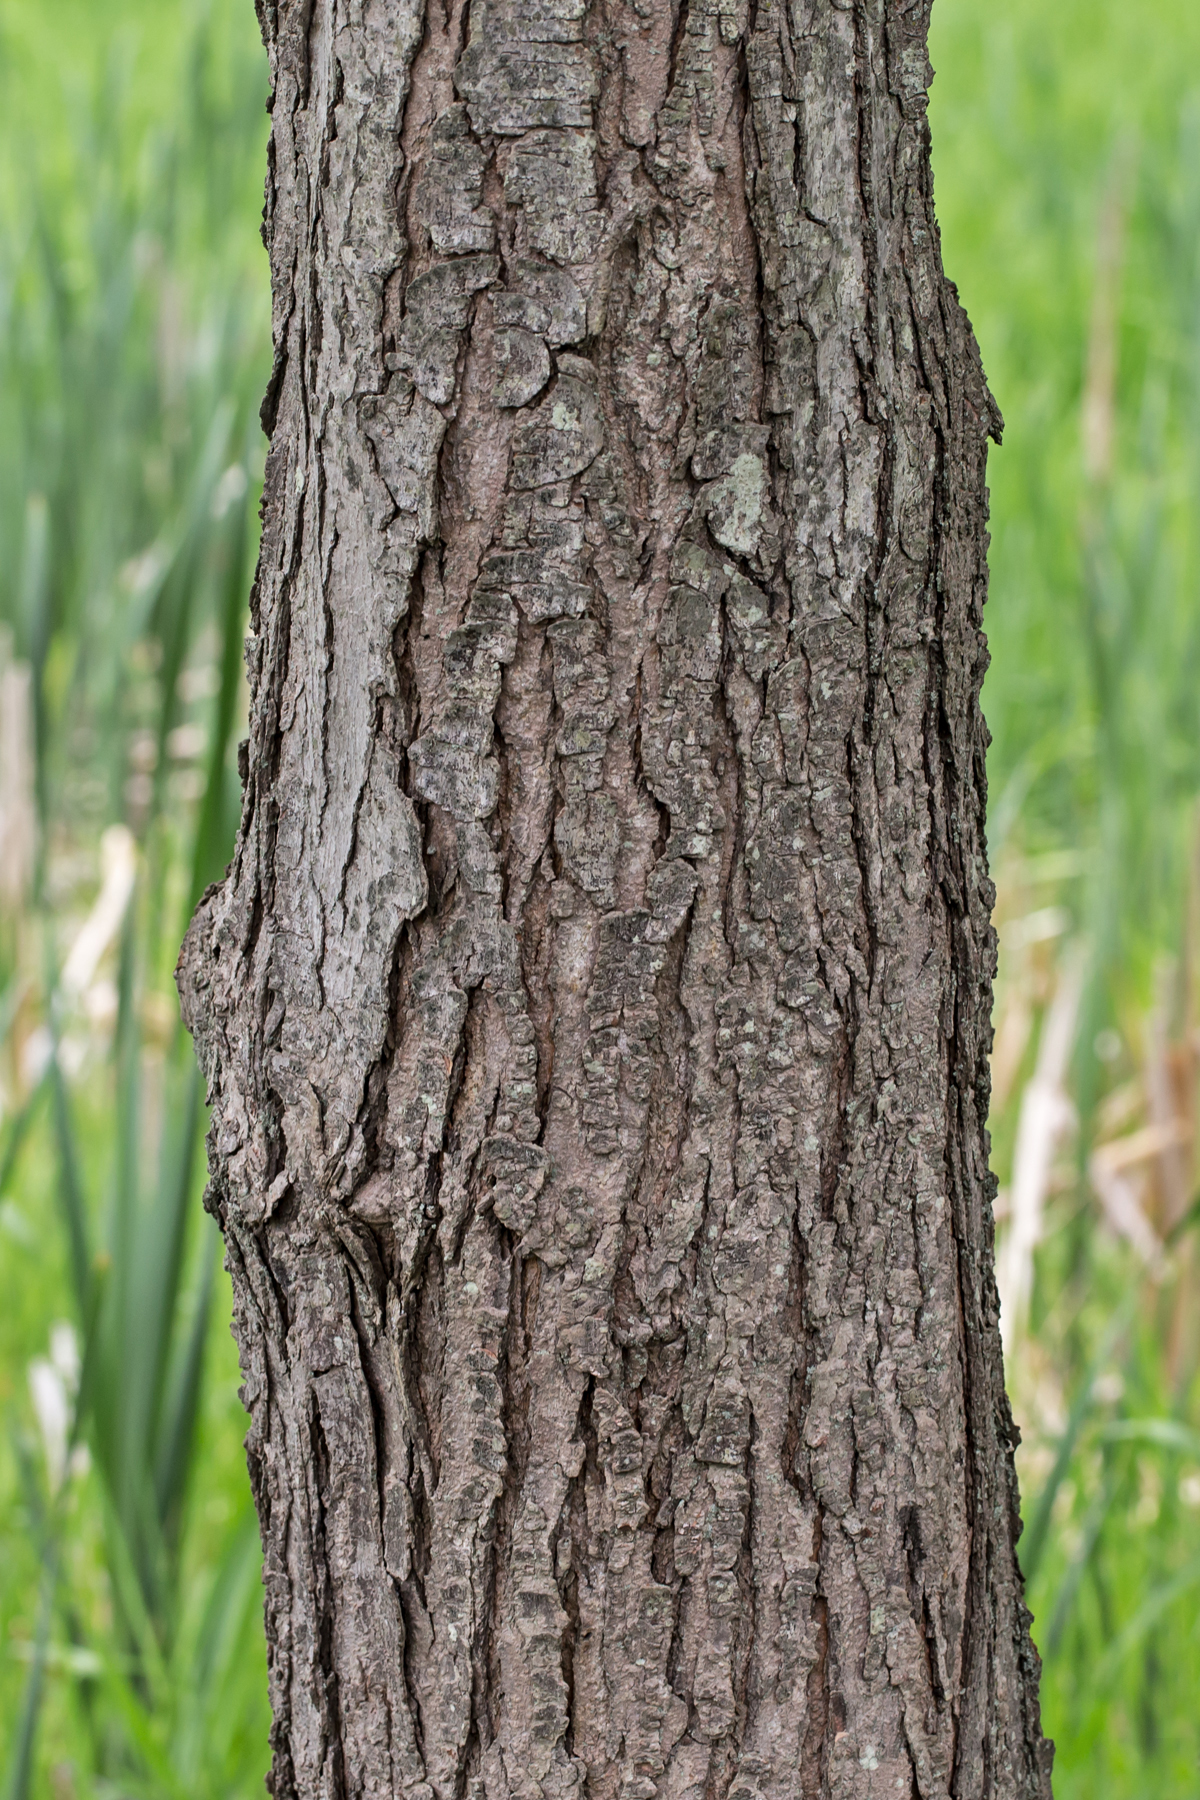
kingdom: Plantae
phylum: Tracheophyta
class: Magnoliopsida
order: Sapindales
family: Sapindaceae
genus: Acer
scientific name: Acer rubrum
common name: Red maple
